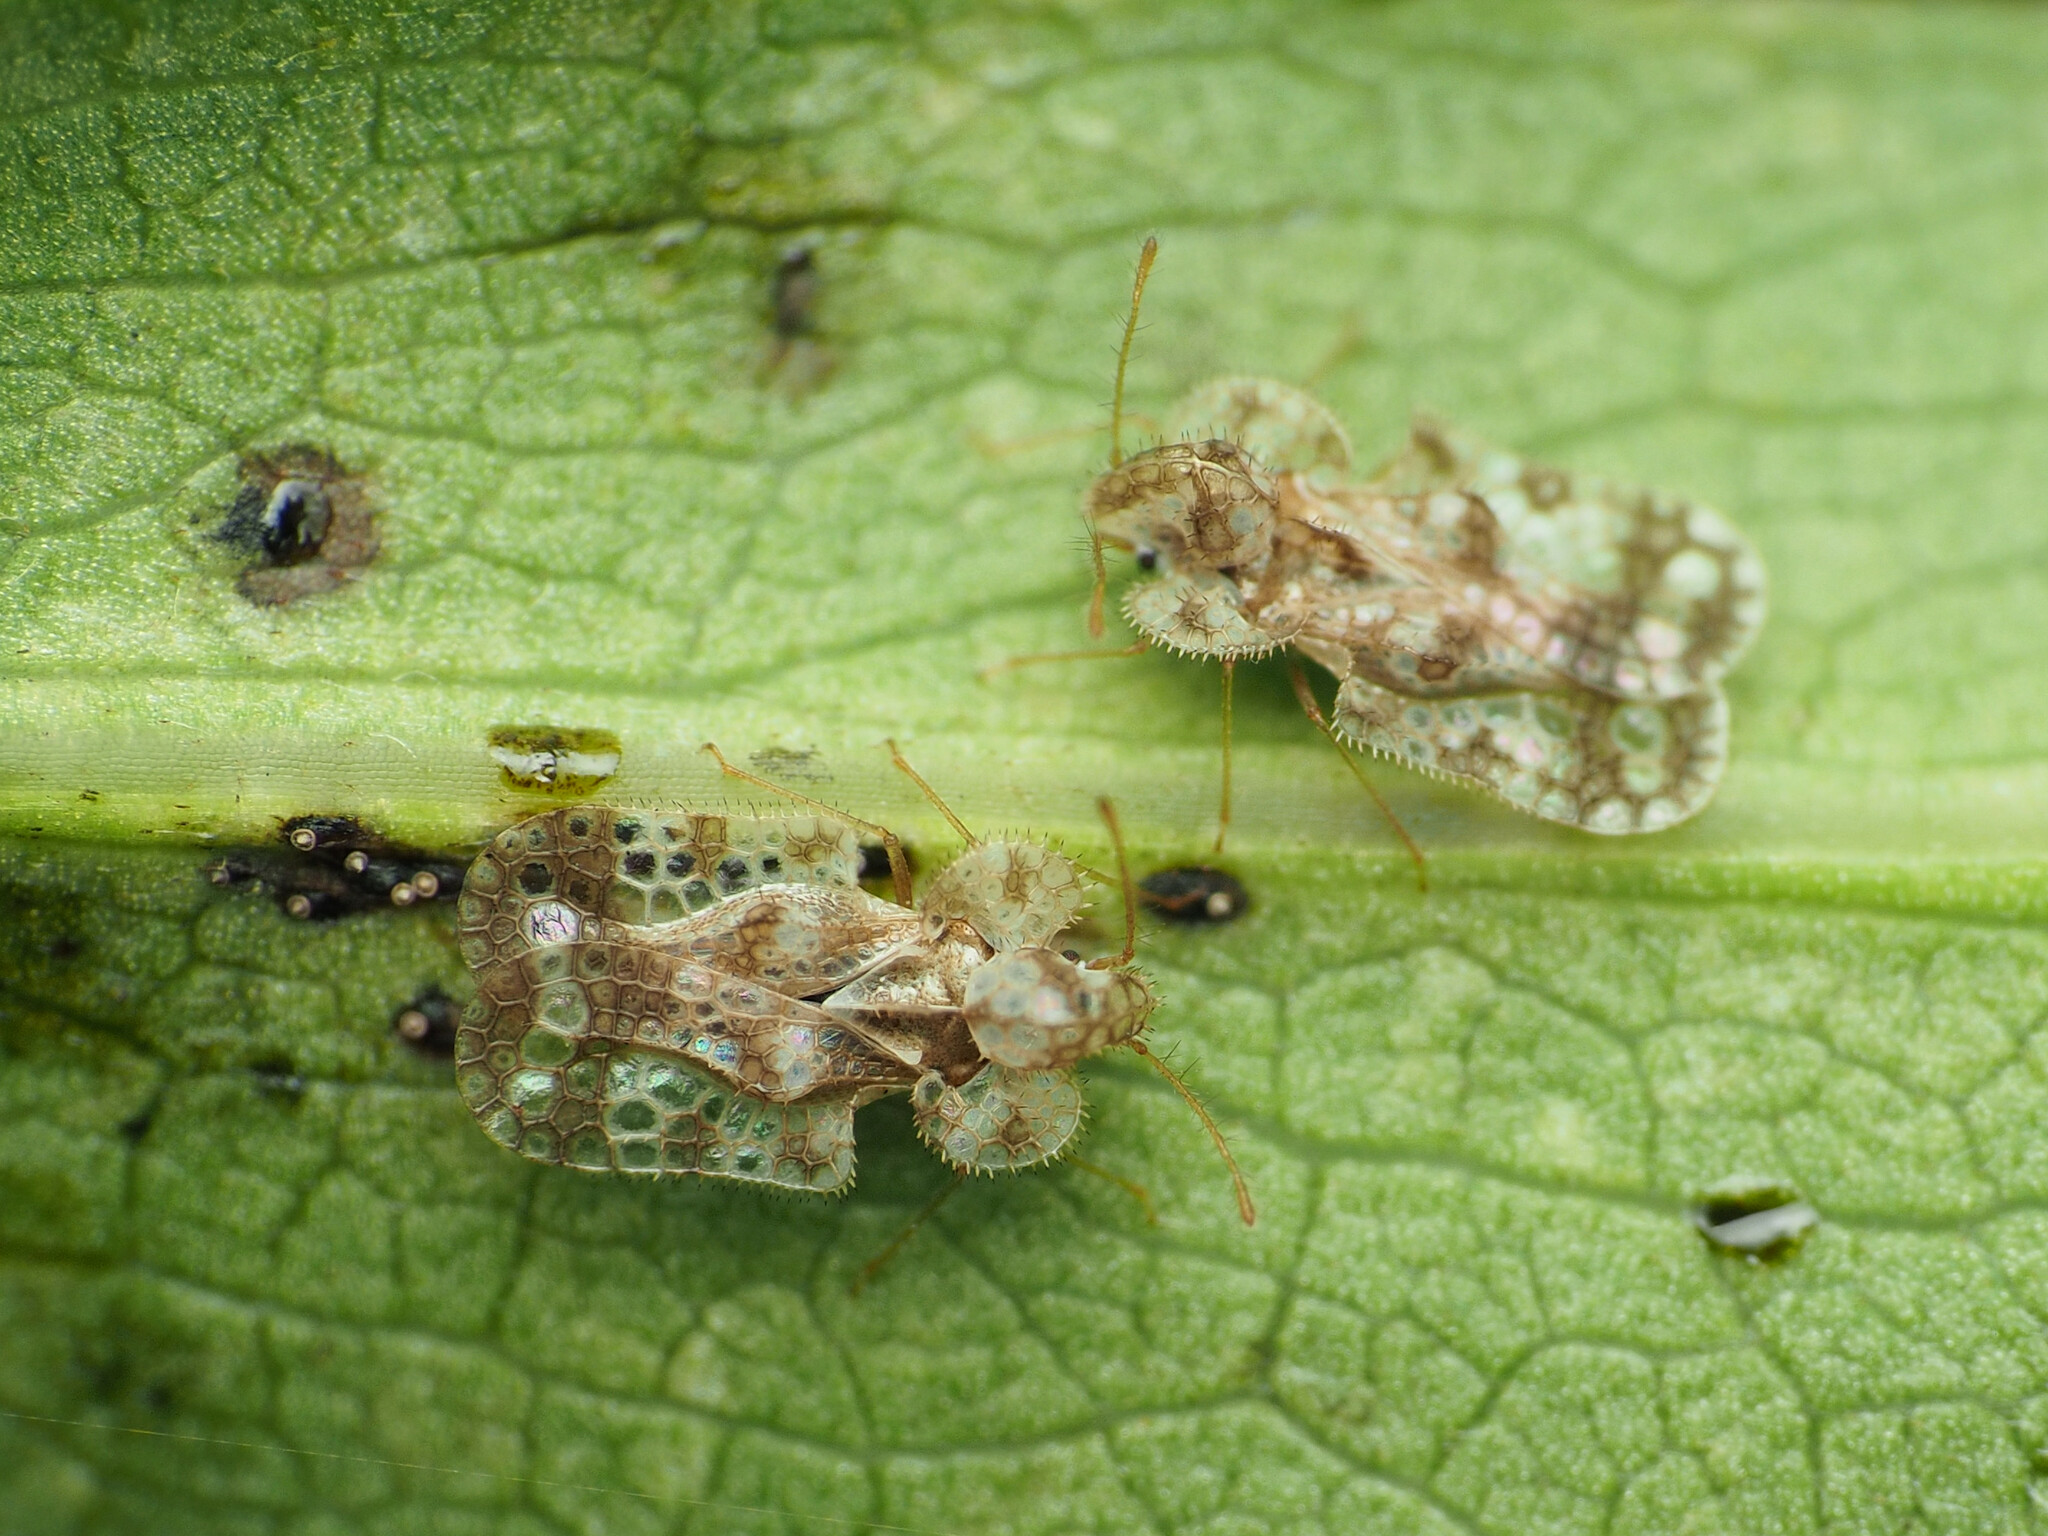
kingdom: Animalia
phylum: Arthropoda
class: Insecta
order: Hemiptera
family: Tingidae
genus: Corythucha
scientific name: Corythucha marmorata
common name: Chrysanthemum lace bug
